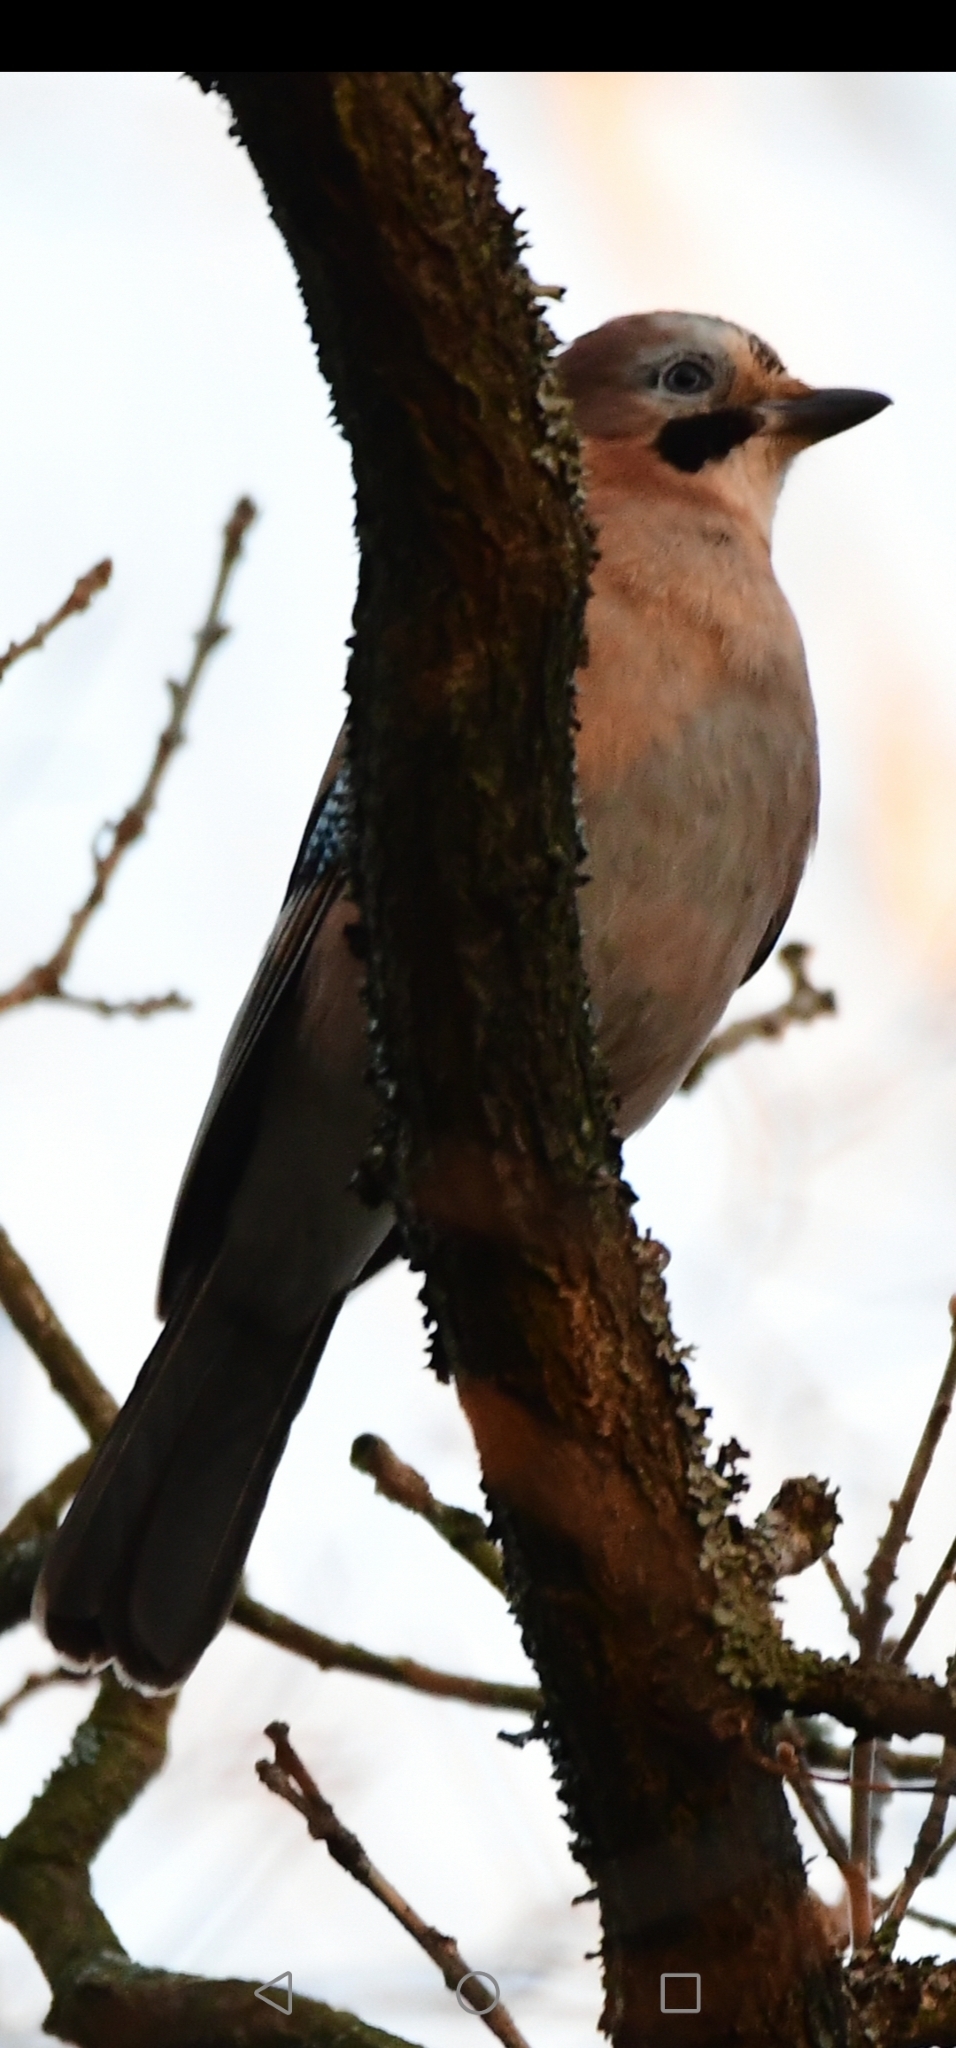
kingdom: Animalia
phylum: Chordata
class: Aves
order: Passeriformes
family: Corvidae
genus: Garrulus
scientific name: Garrulus glandarius
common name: Eurasian jay
